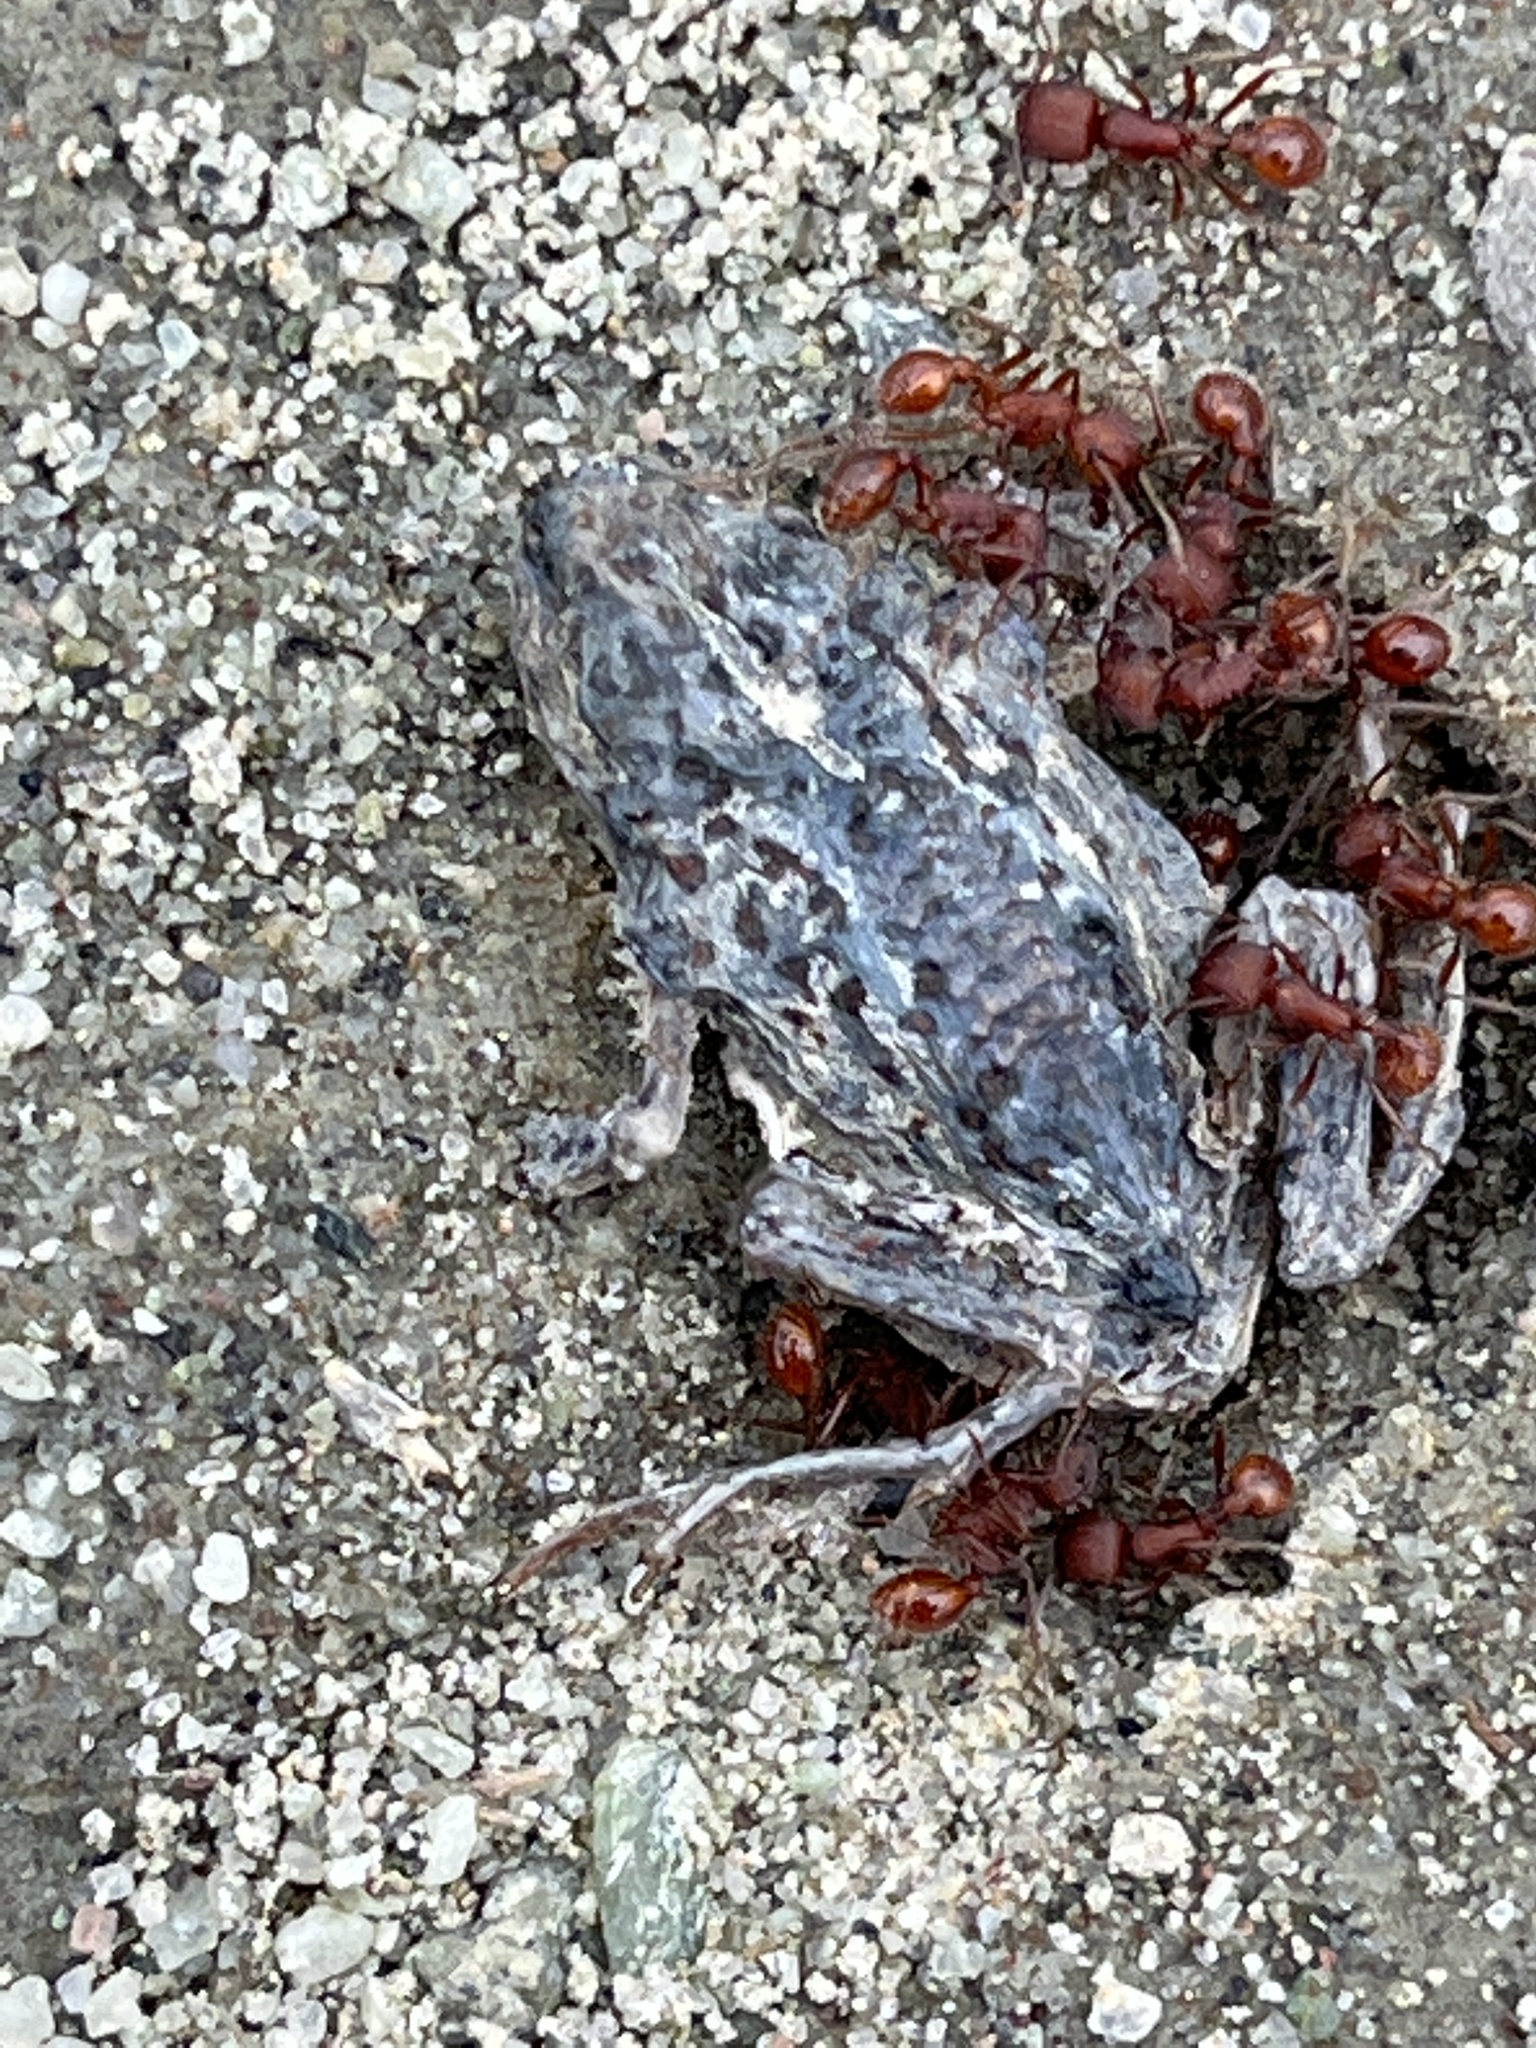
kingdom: Animalia
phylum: Chordata
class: Amphibia
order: Anura
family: Scaphiopodidae
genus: Spea
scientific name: Spea intermontana
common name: Great basin spadefoot
